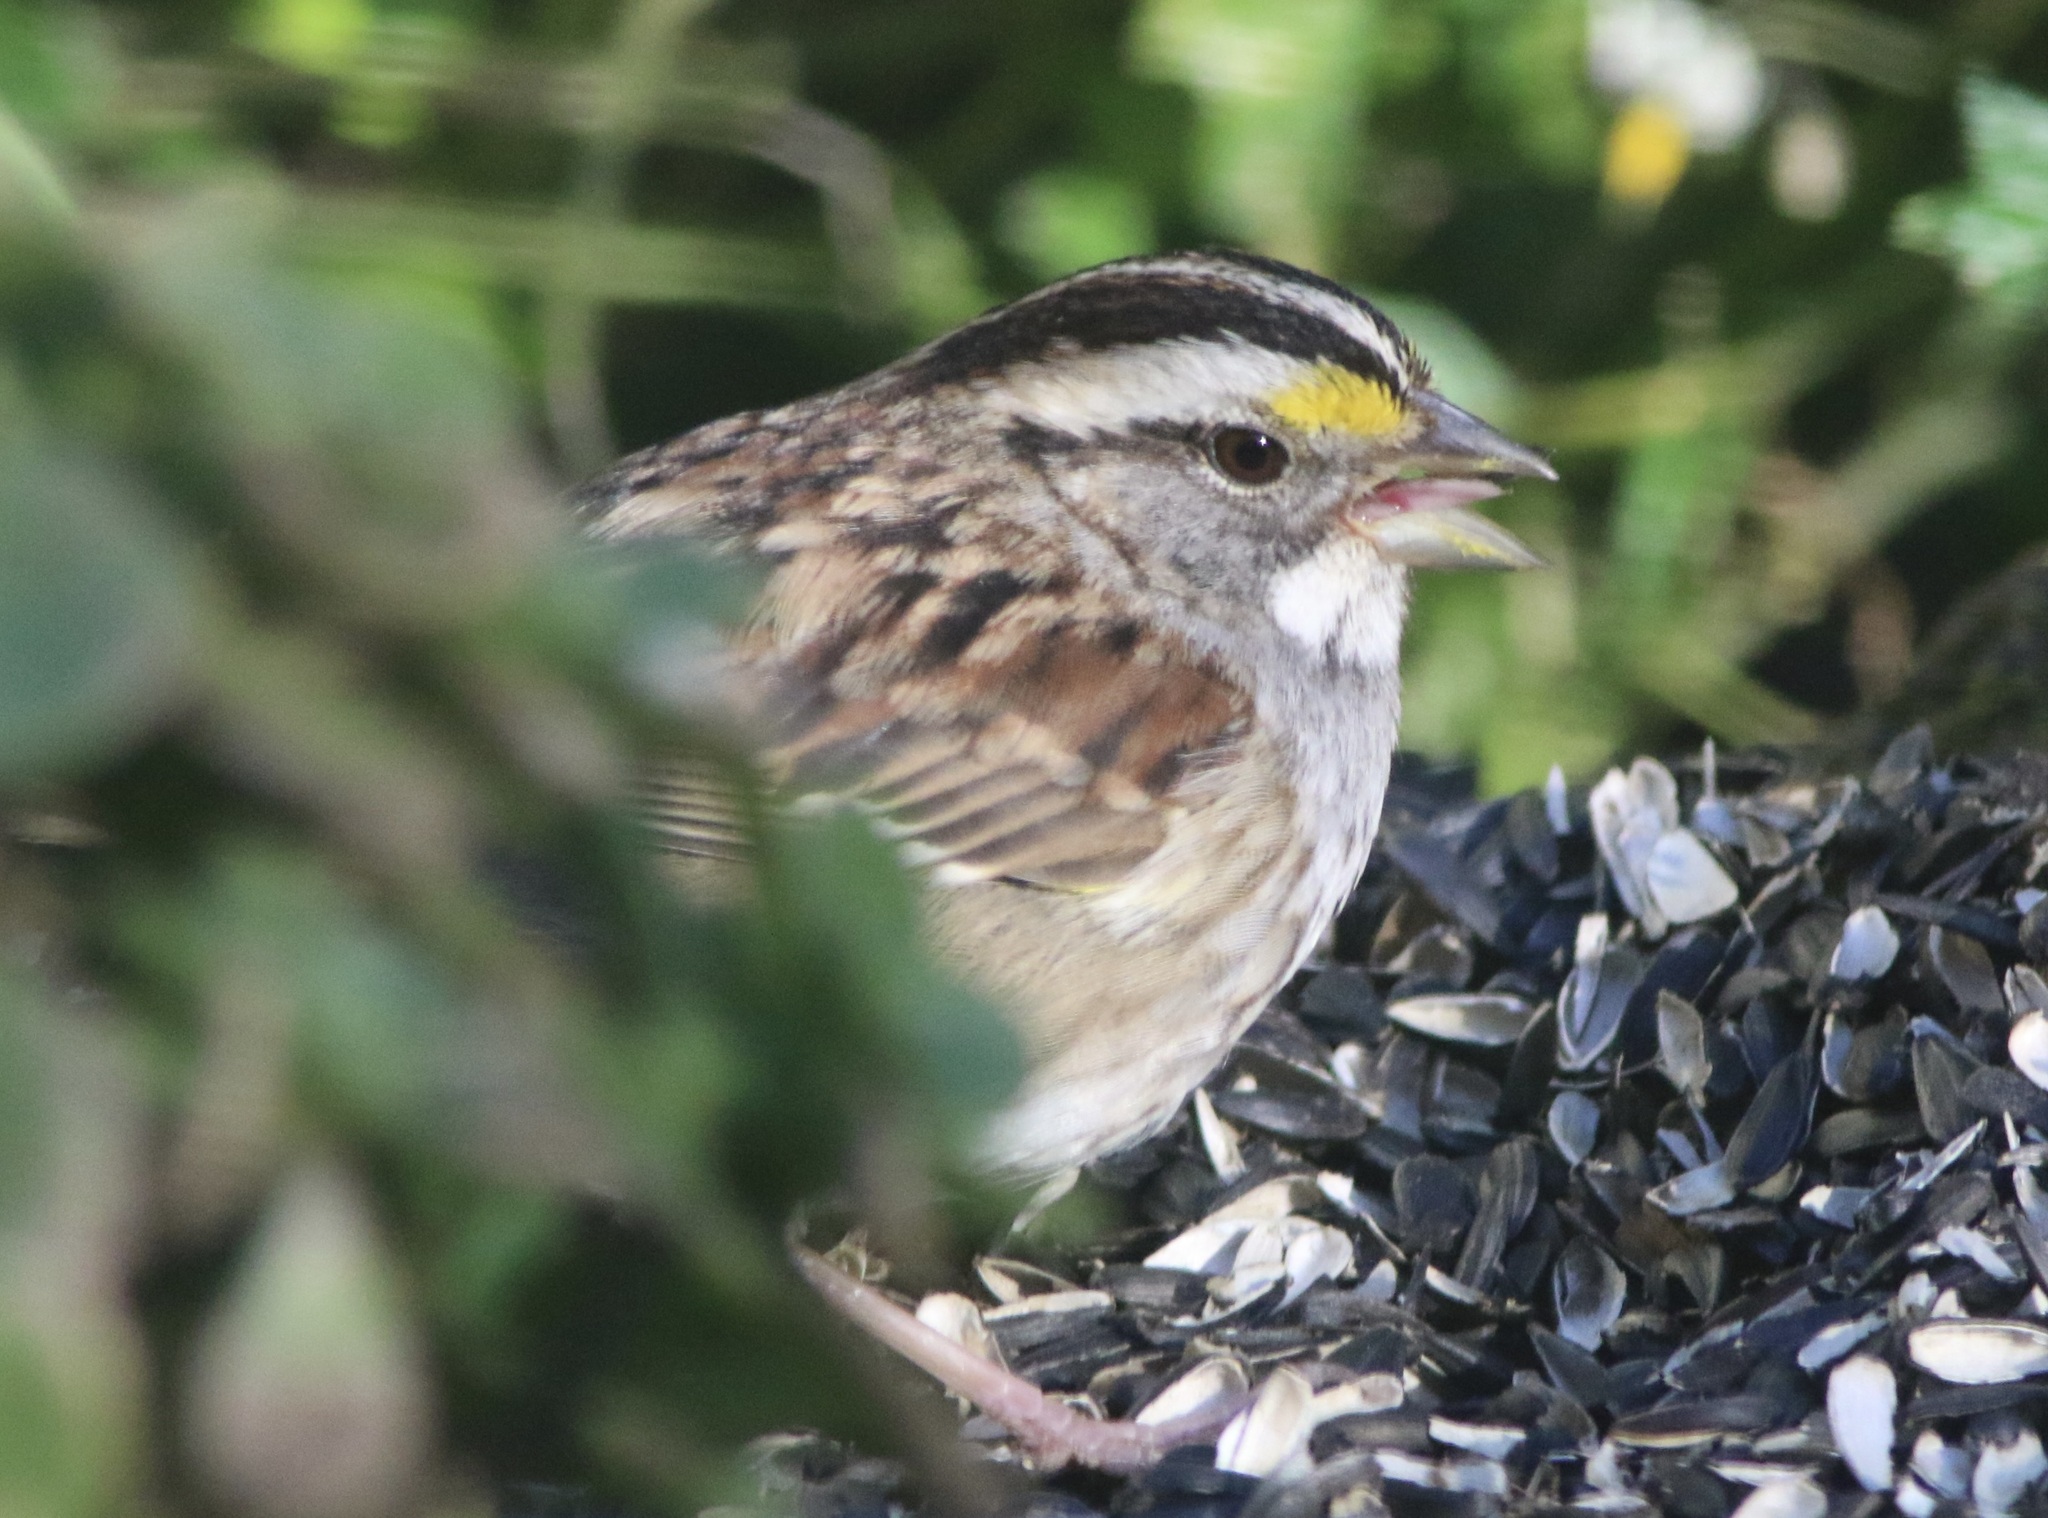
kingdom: Animalia
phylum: Chordata
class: Aves
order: Passeriformes
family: Passerellidae
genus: Zonotrichia
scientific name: Zonotrichia albicollis
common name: White-throated sparrow
